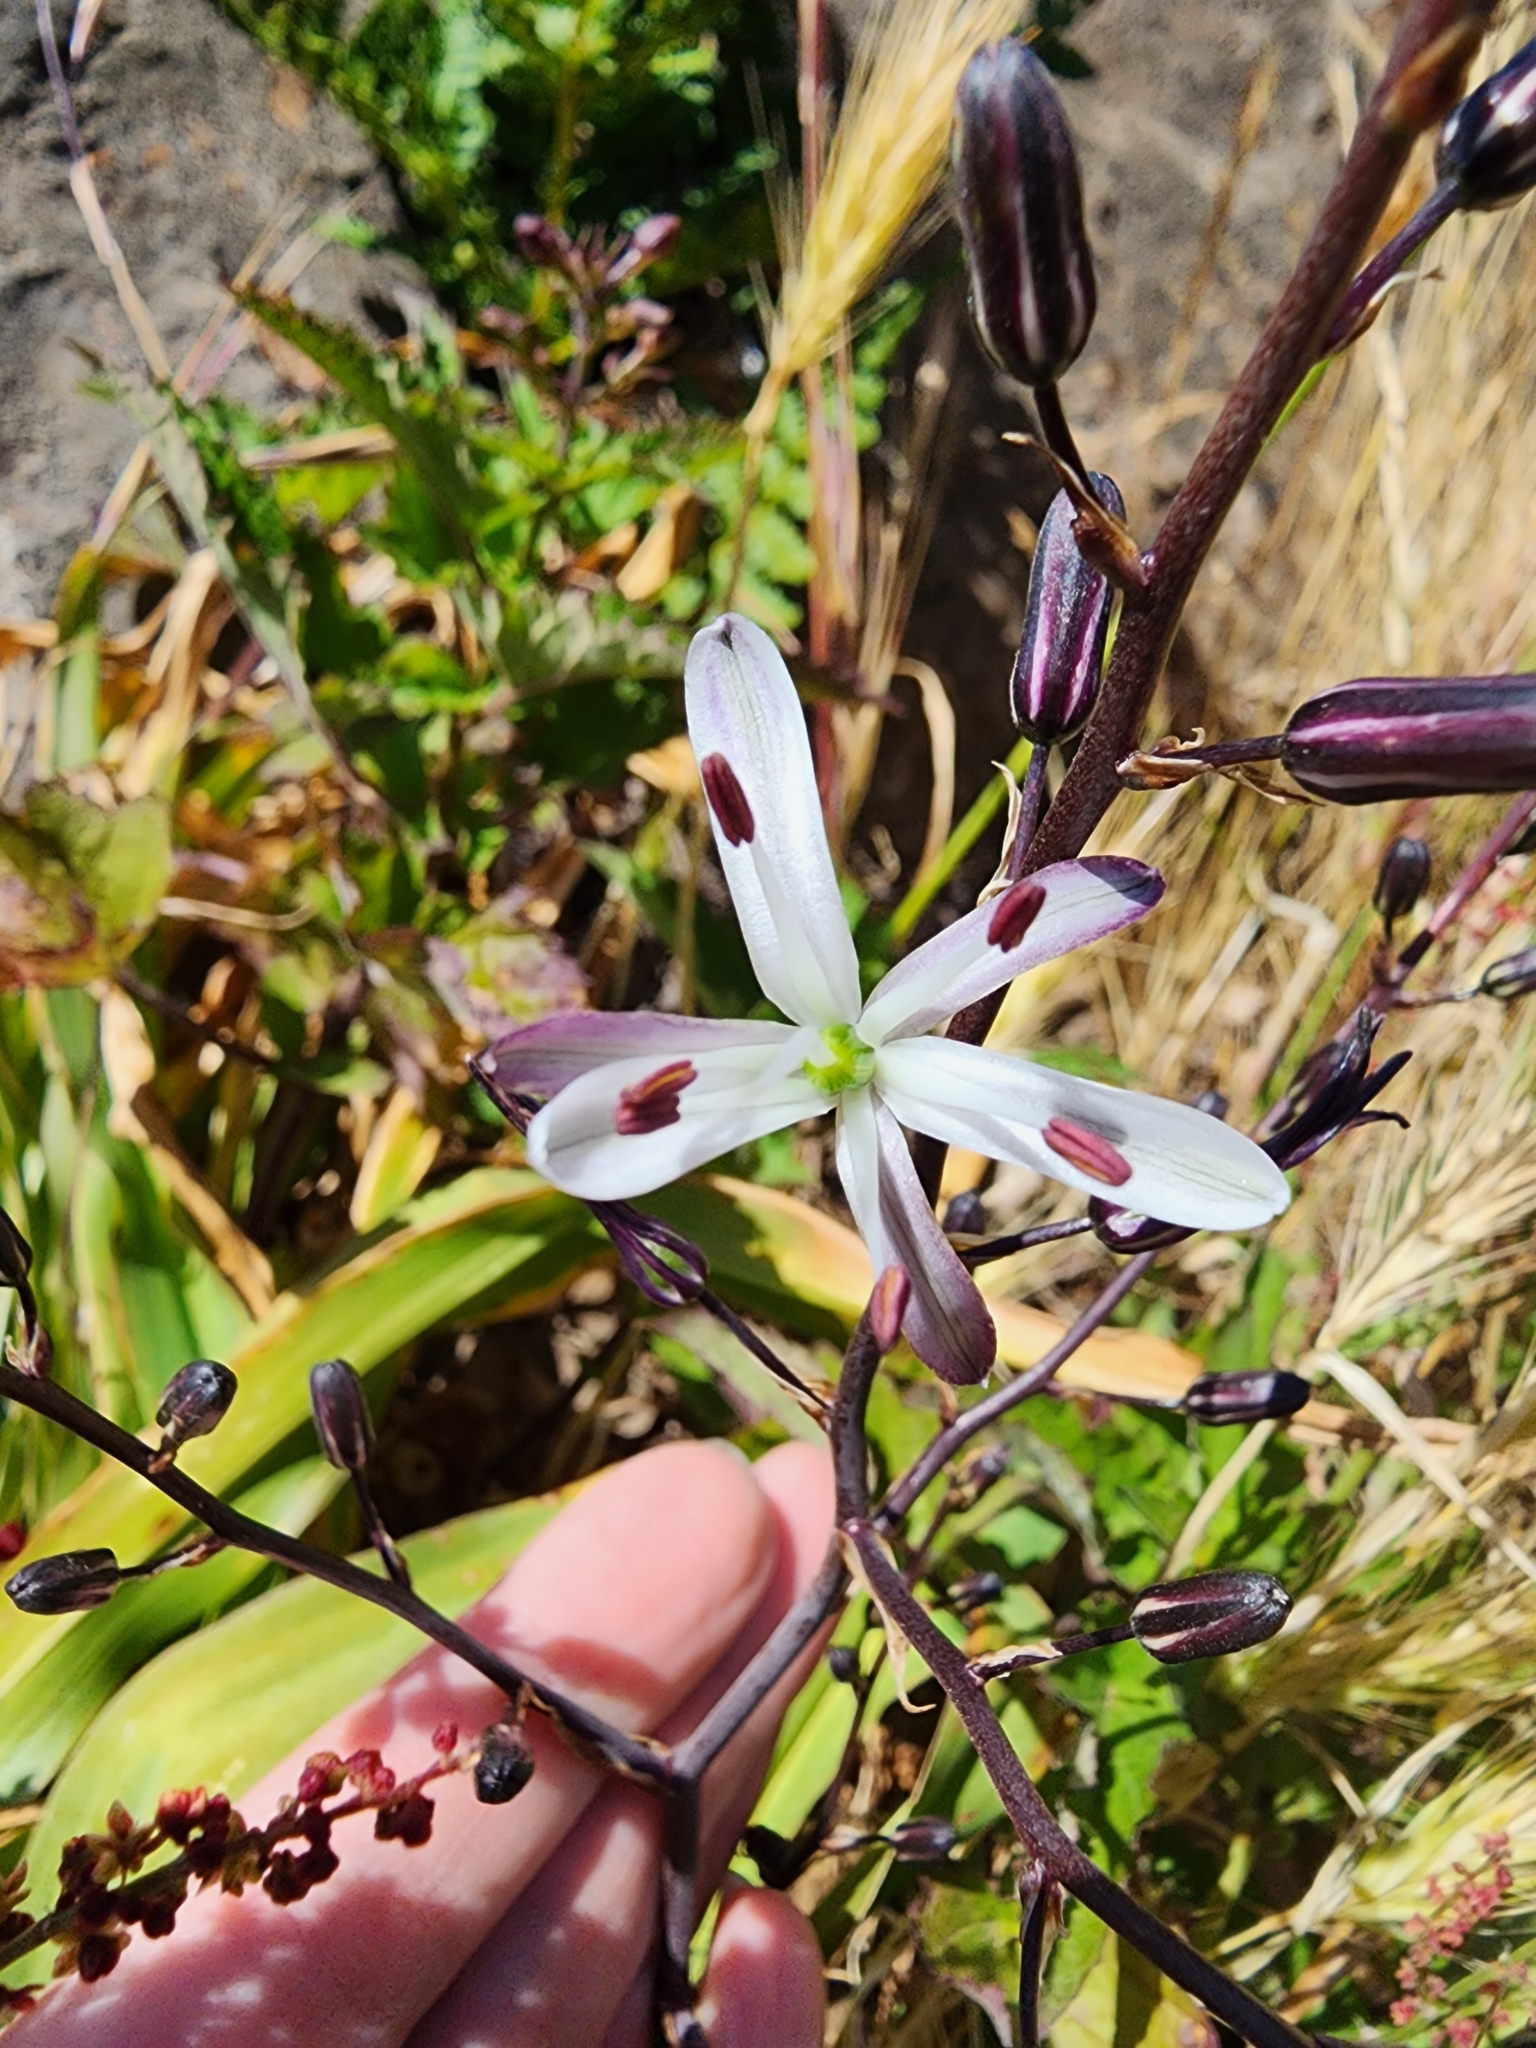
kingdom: Plantae
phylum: Tracheophyta
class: Liliopsida
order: Asparagales
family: Asparagaceae
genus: Chlorogalum
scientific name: Chlorogalum pomeridianum
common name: Amole
